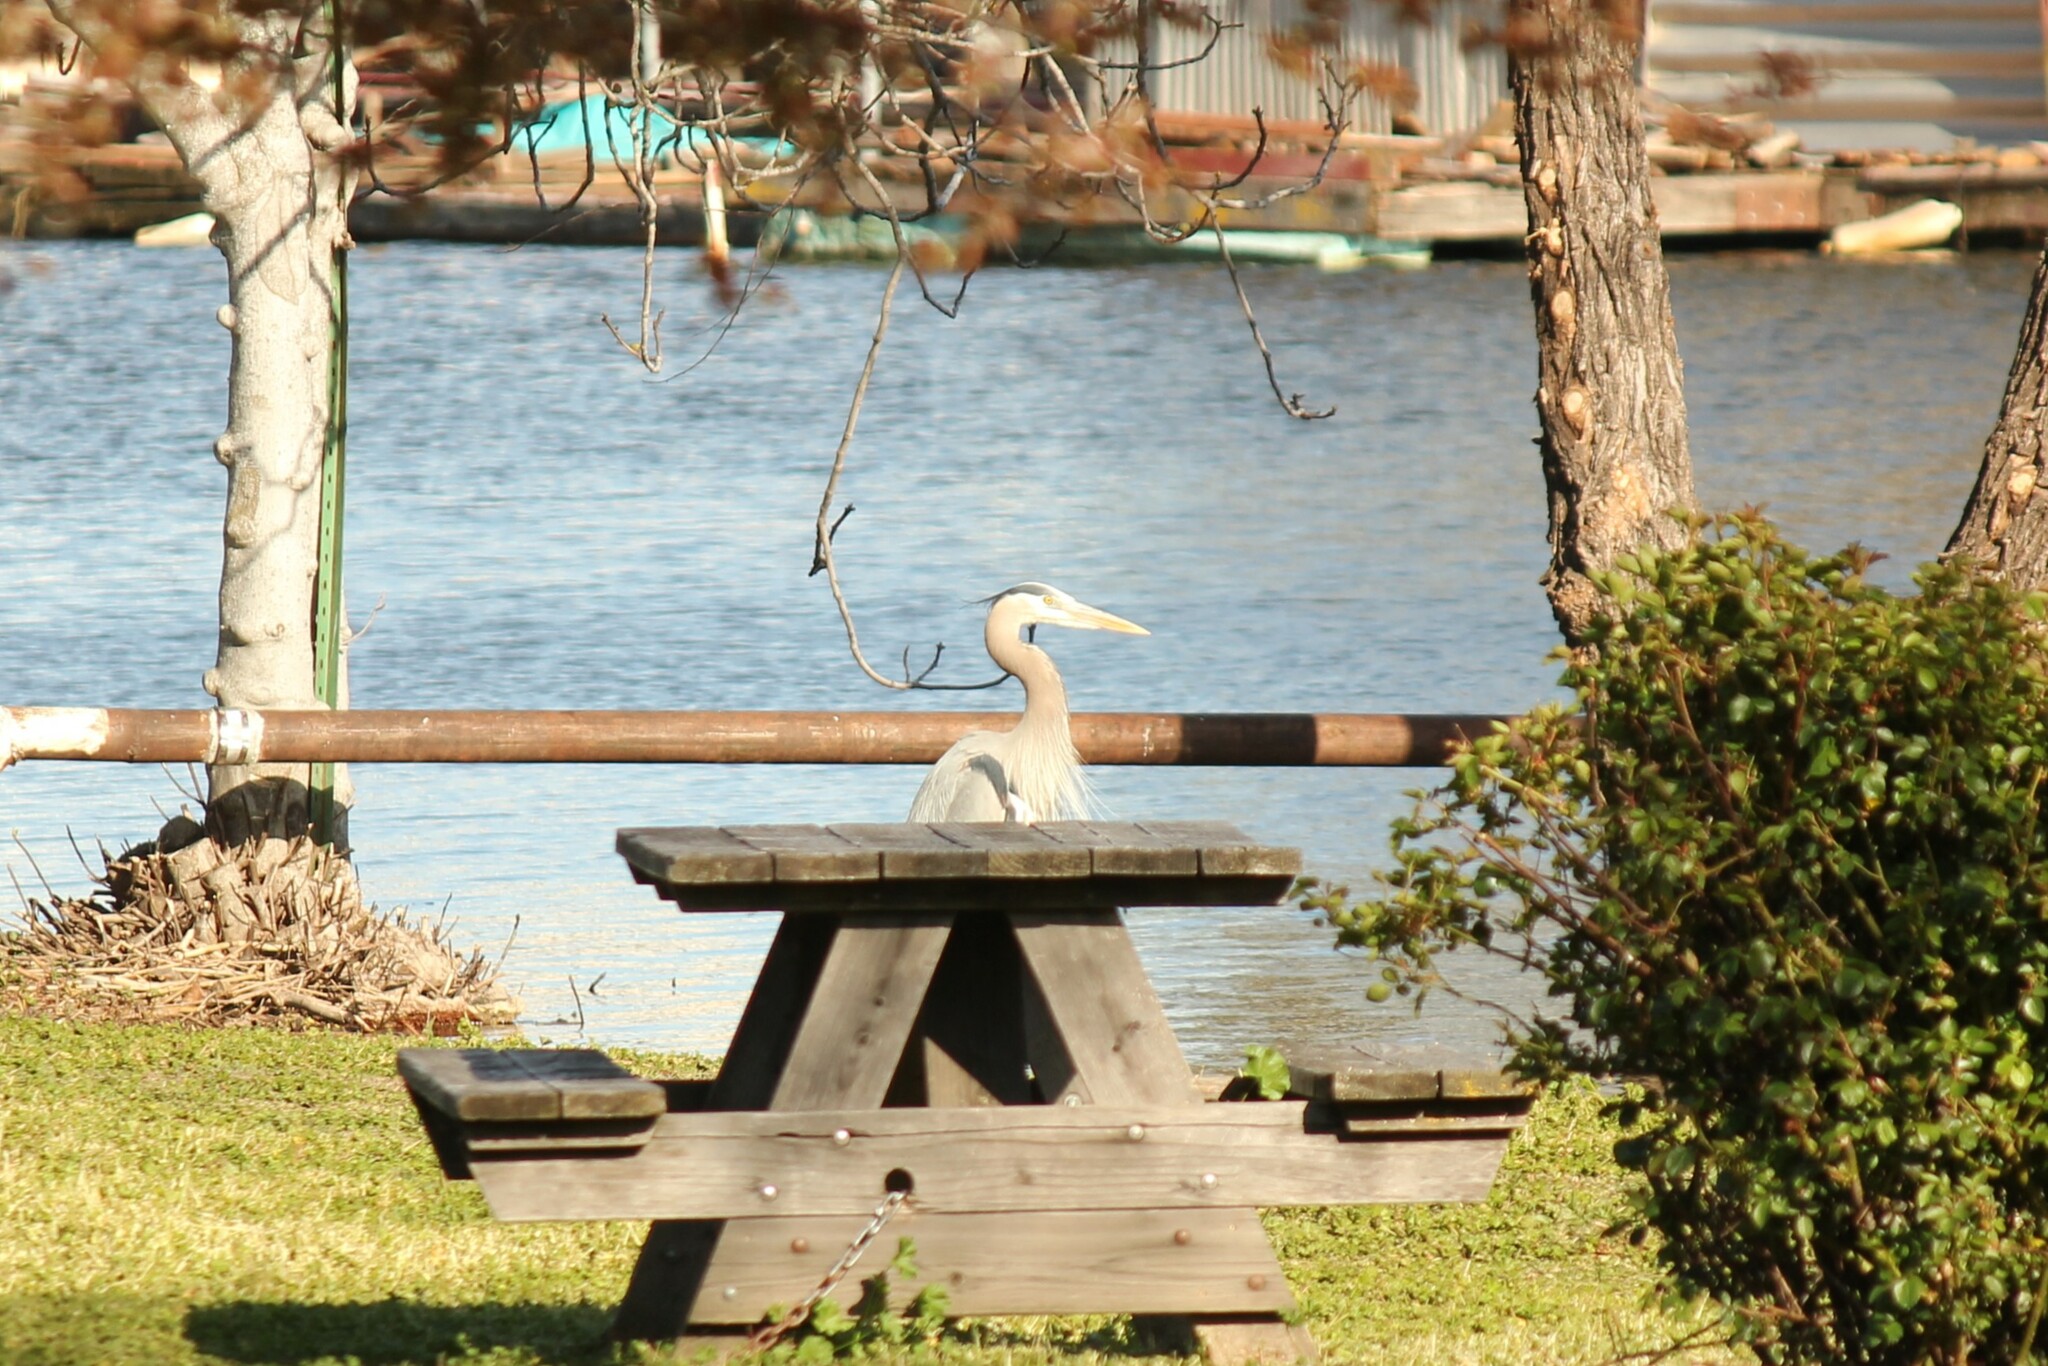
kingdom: Animalia
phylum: Chordata
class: Aves
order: Pelecaniformes
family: Ardeidae
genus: Ardea
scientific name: Ardea herodias
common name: Great blue heron
